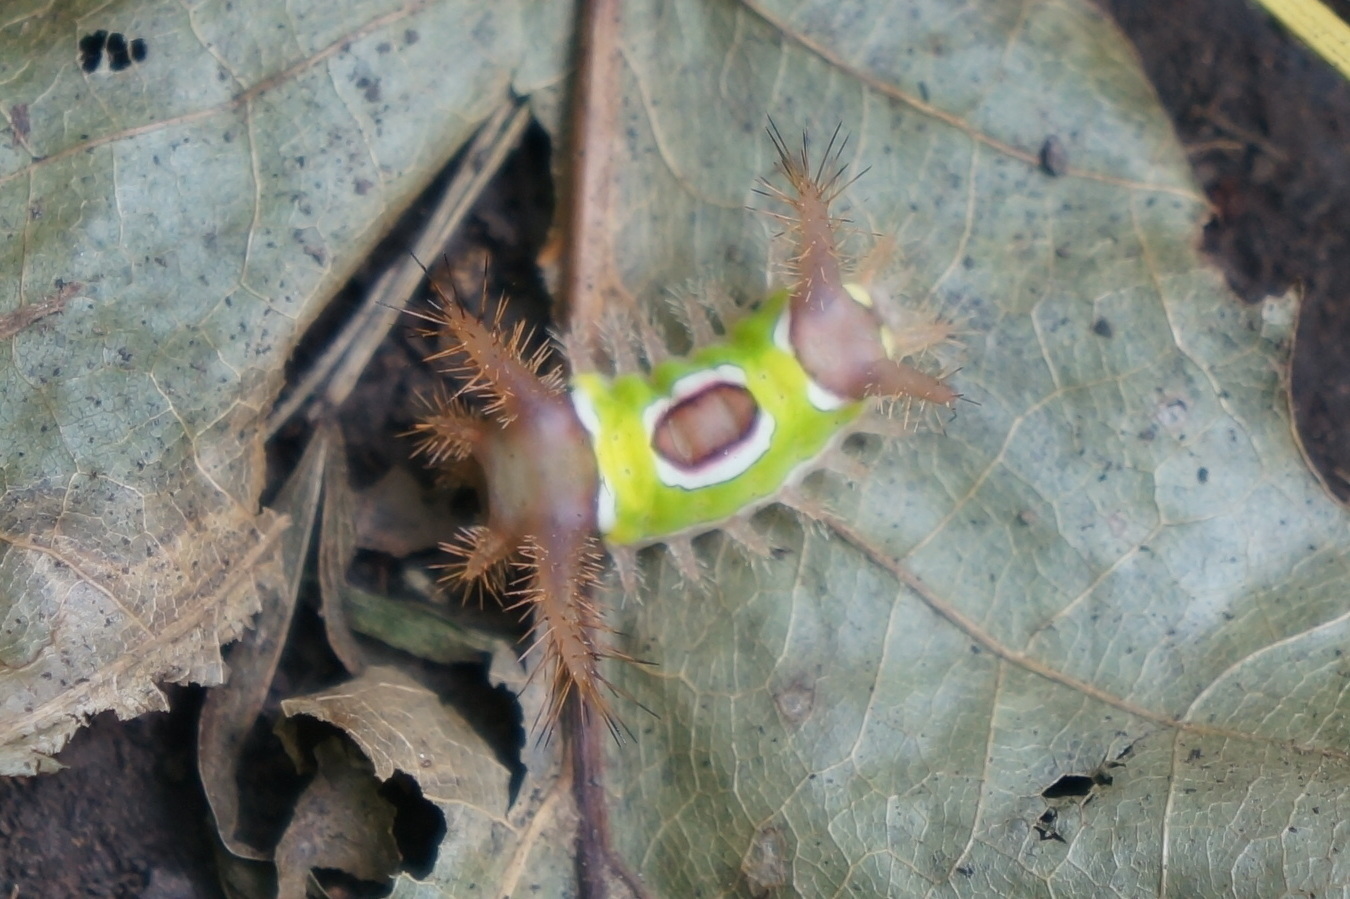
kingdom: Animalia
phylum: Arthropoda
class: Insecta
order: Lepidoptera
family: Limacodidae
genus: Acharia
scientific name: Acharia stimulea
